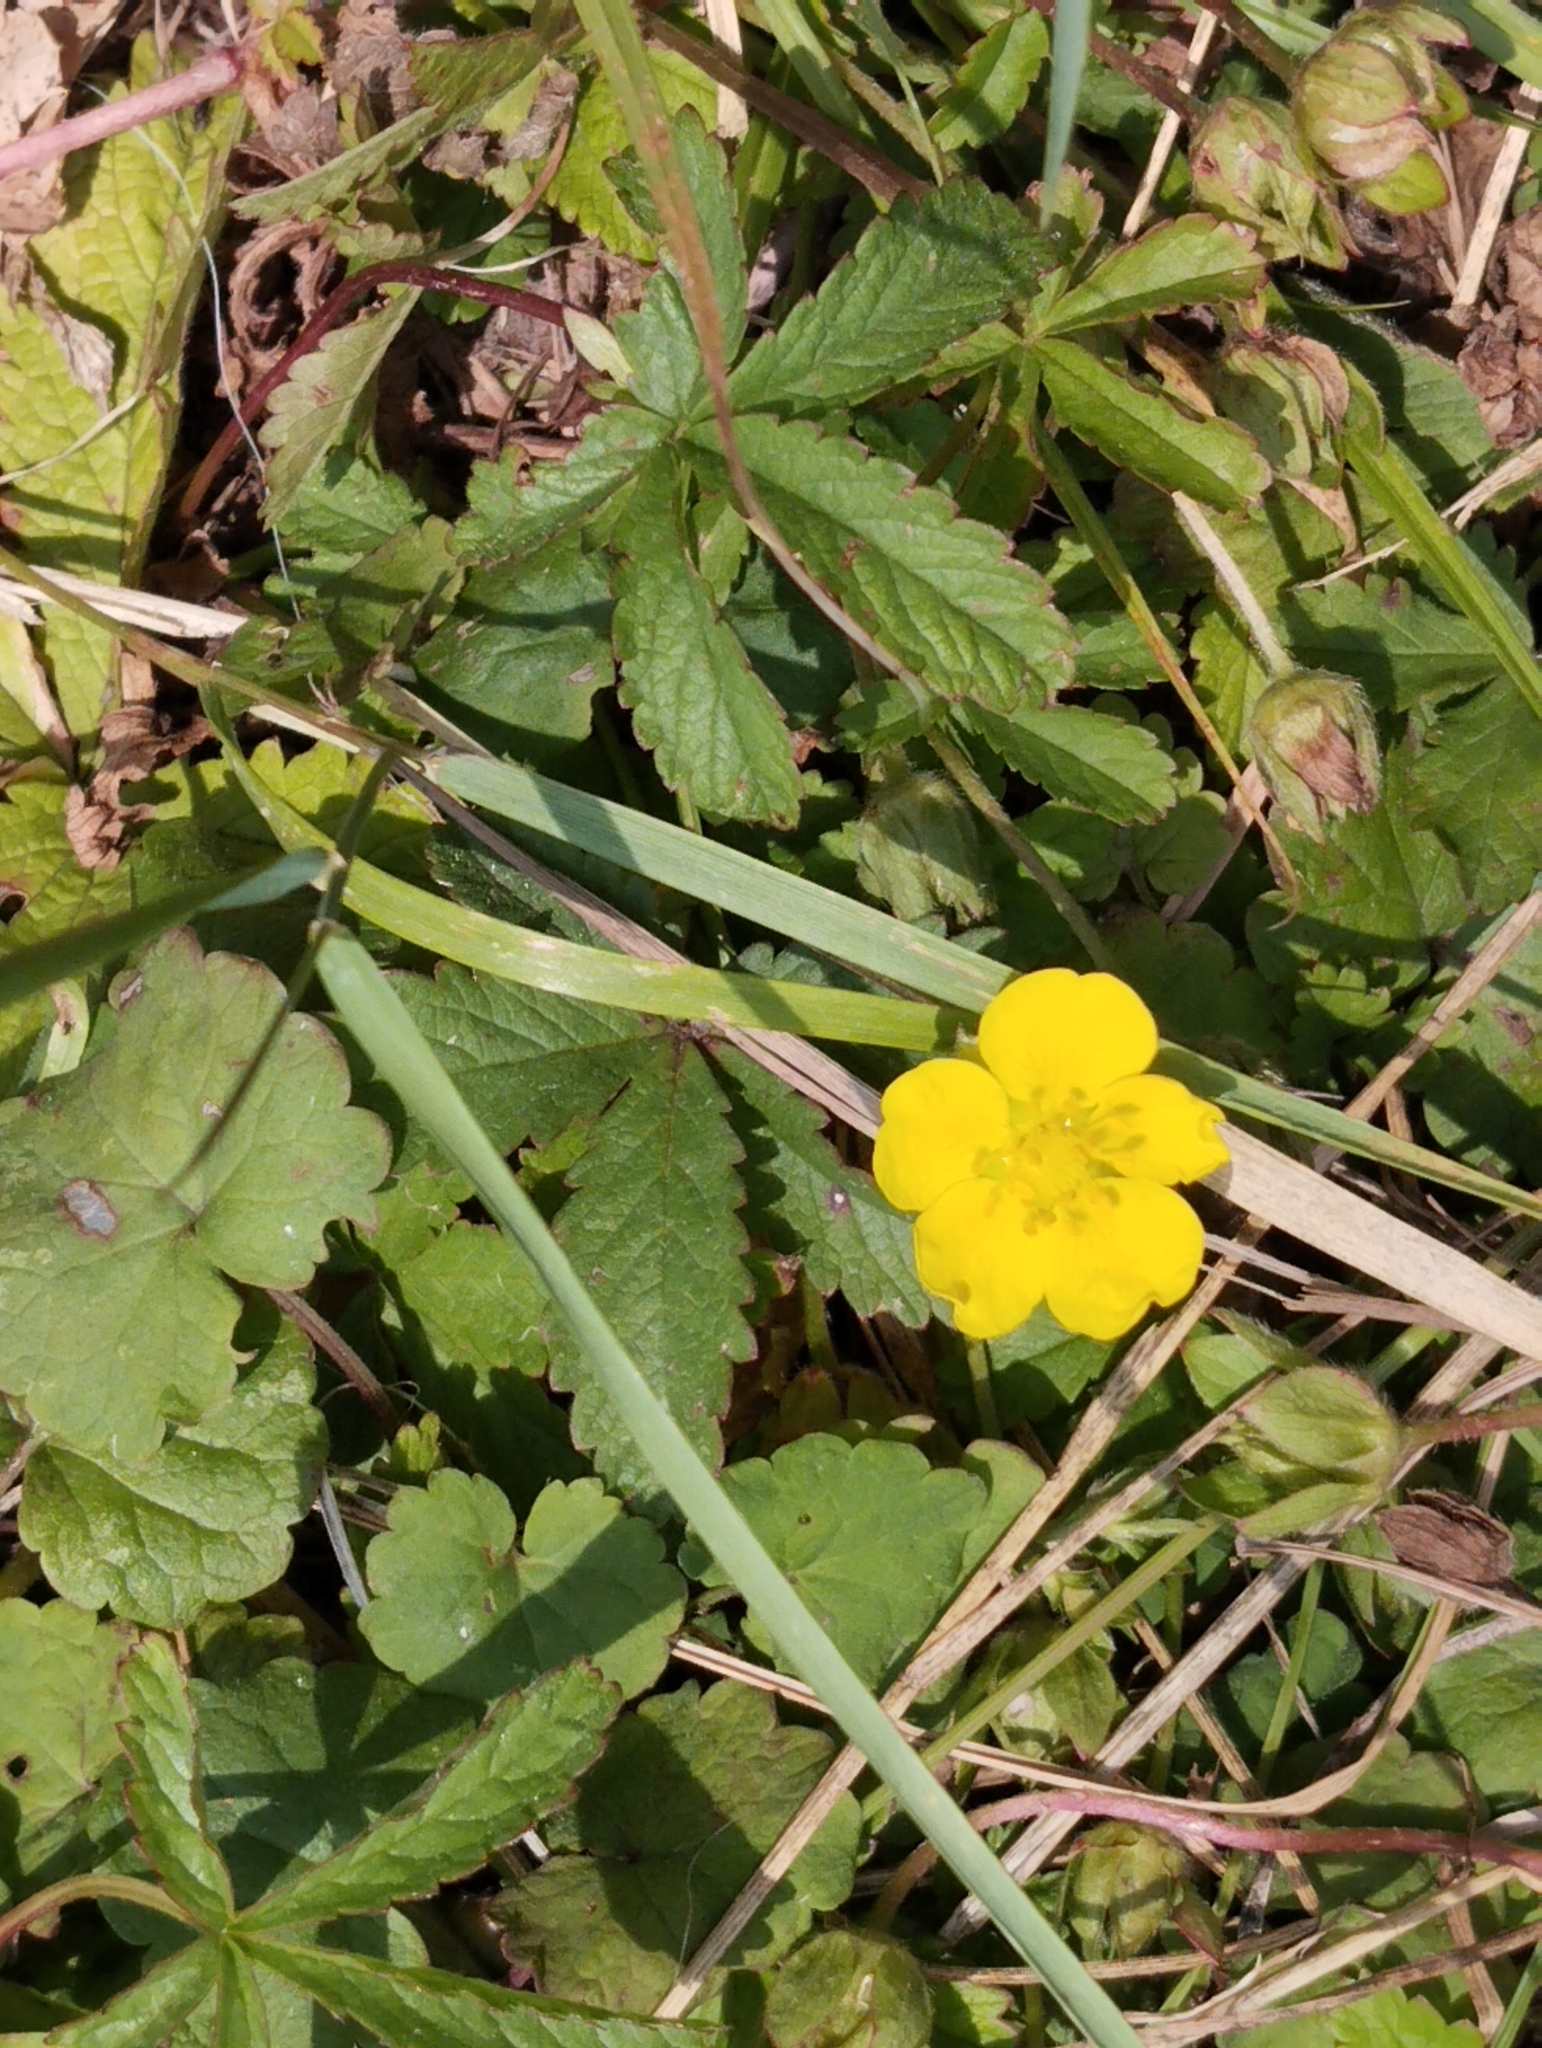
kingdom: Plantae
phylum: Tracheophyta
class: Magnoliopsida
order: Rosales
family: Rosaceae
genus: Potentilla
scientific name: Potentilla reptans
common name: Creeping cinquefoil
